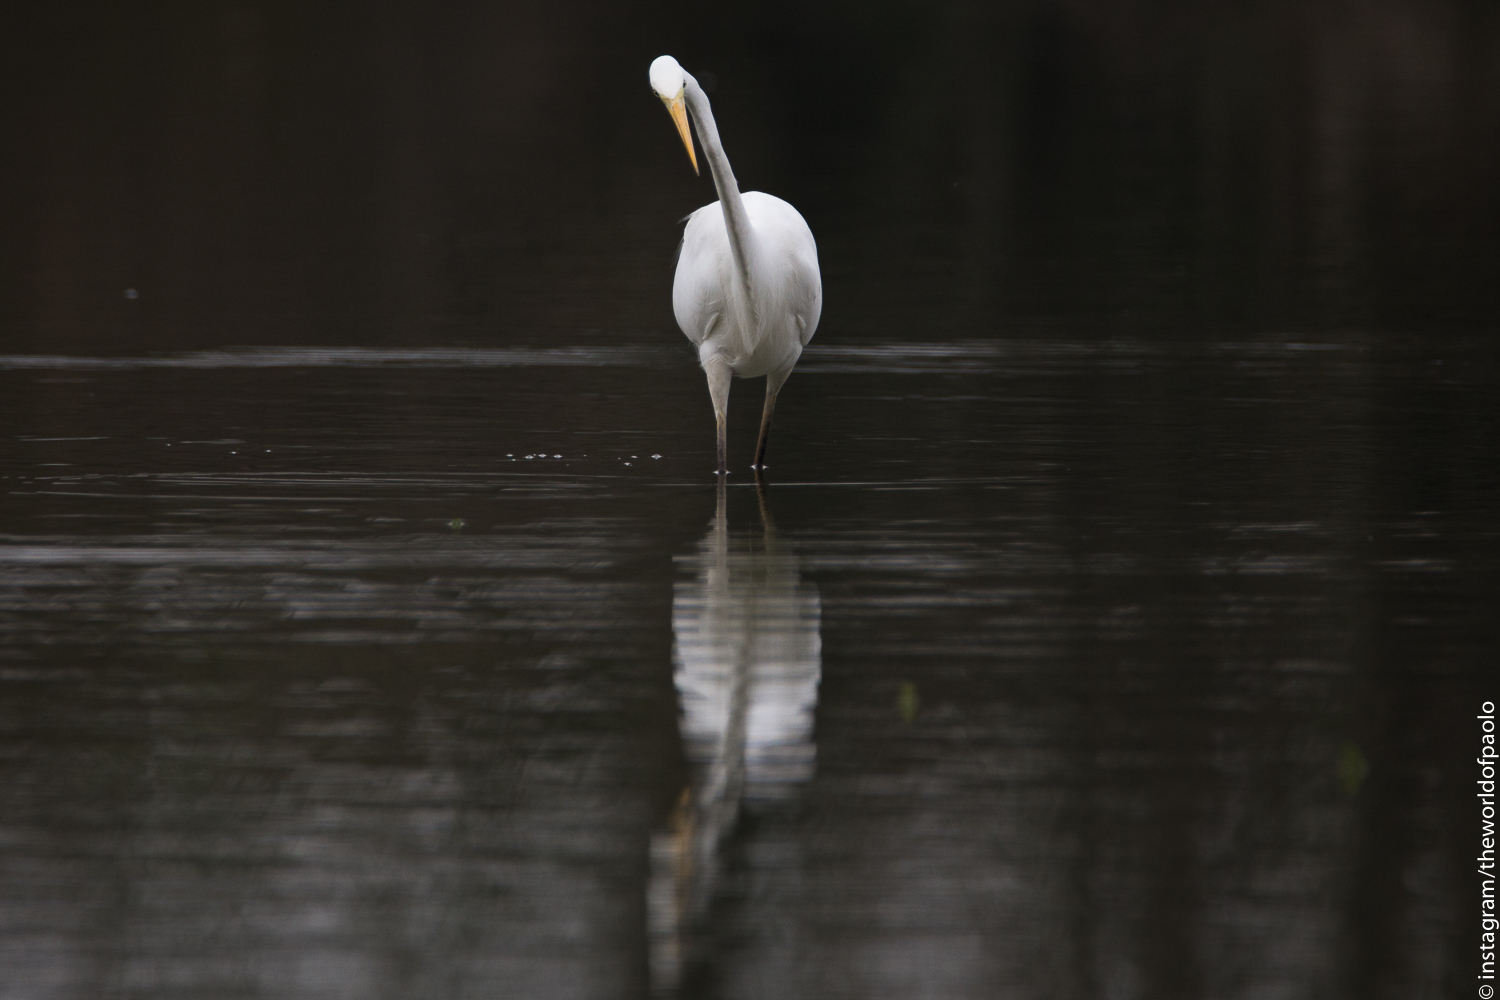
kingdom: Animalia
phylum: Chordata
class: Aves
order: Pelecaniformes
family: Ardeidae
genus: Ardea
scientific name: Ardea alba
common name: Great egret
